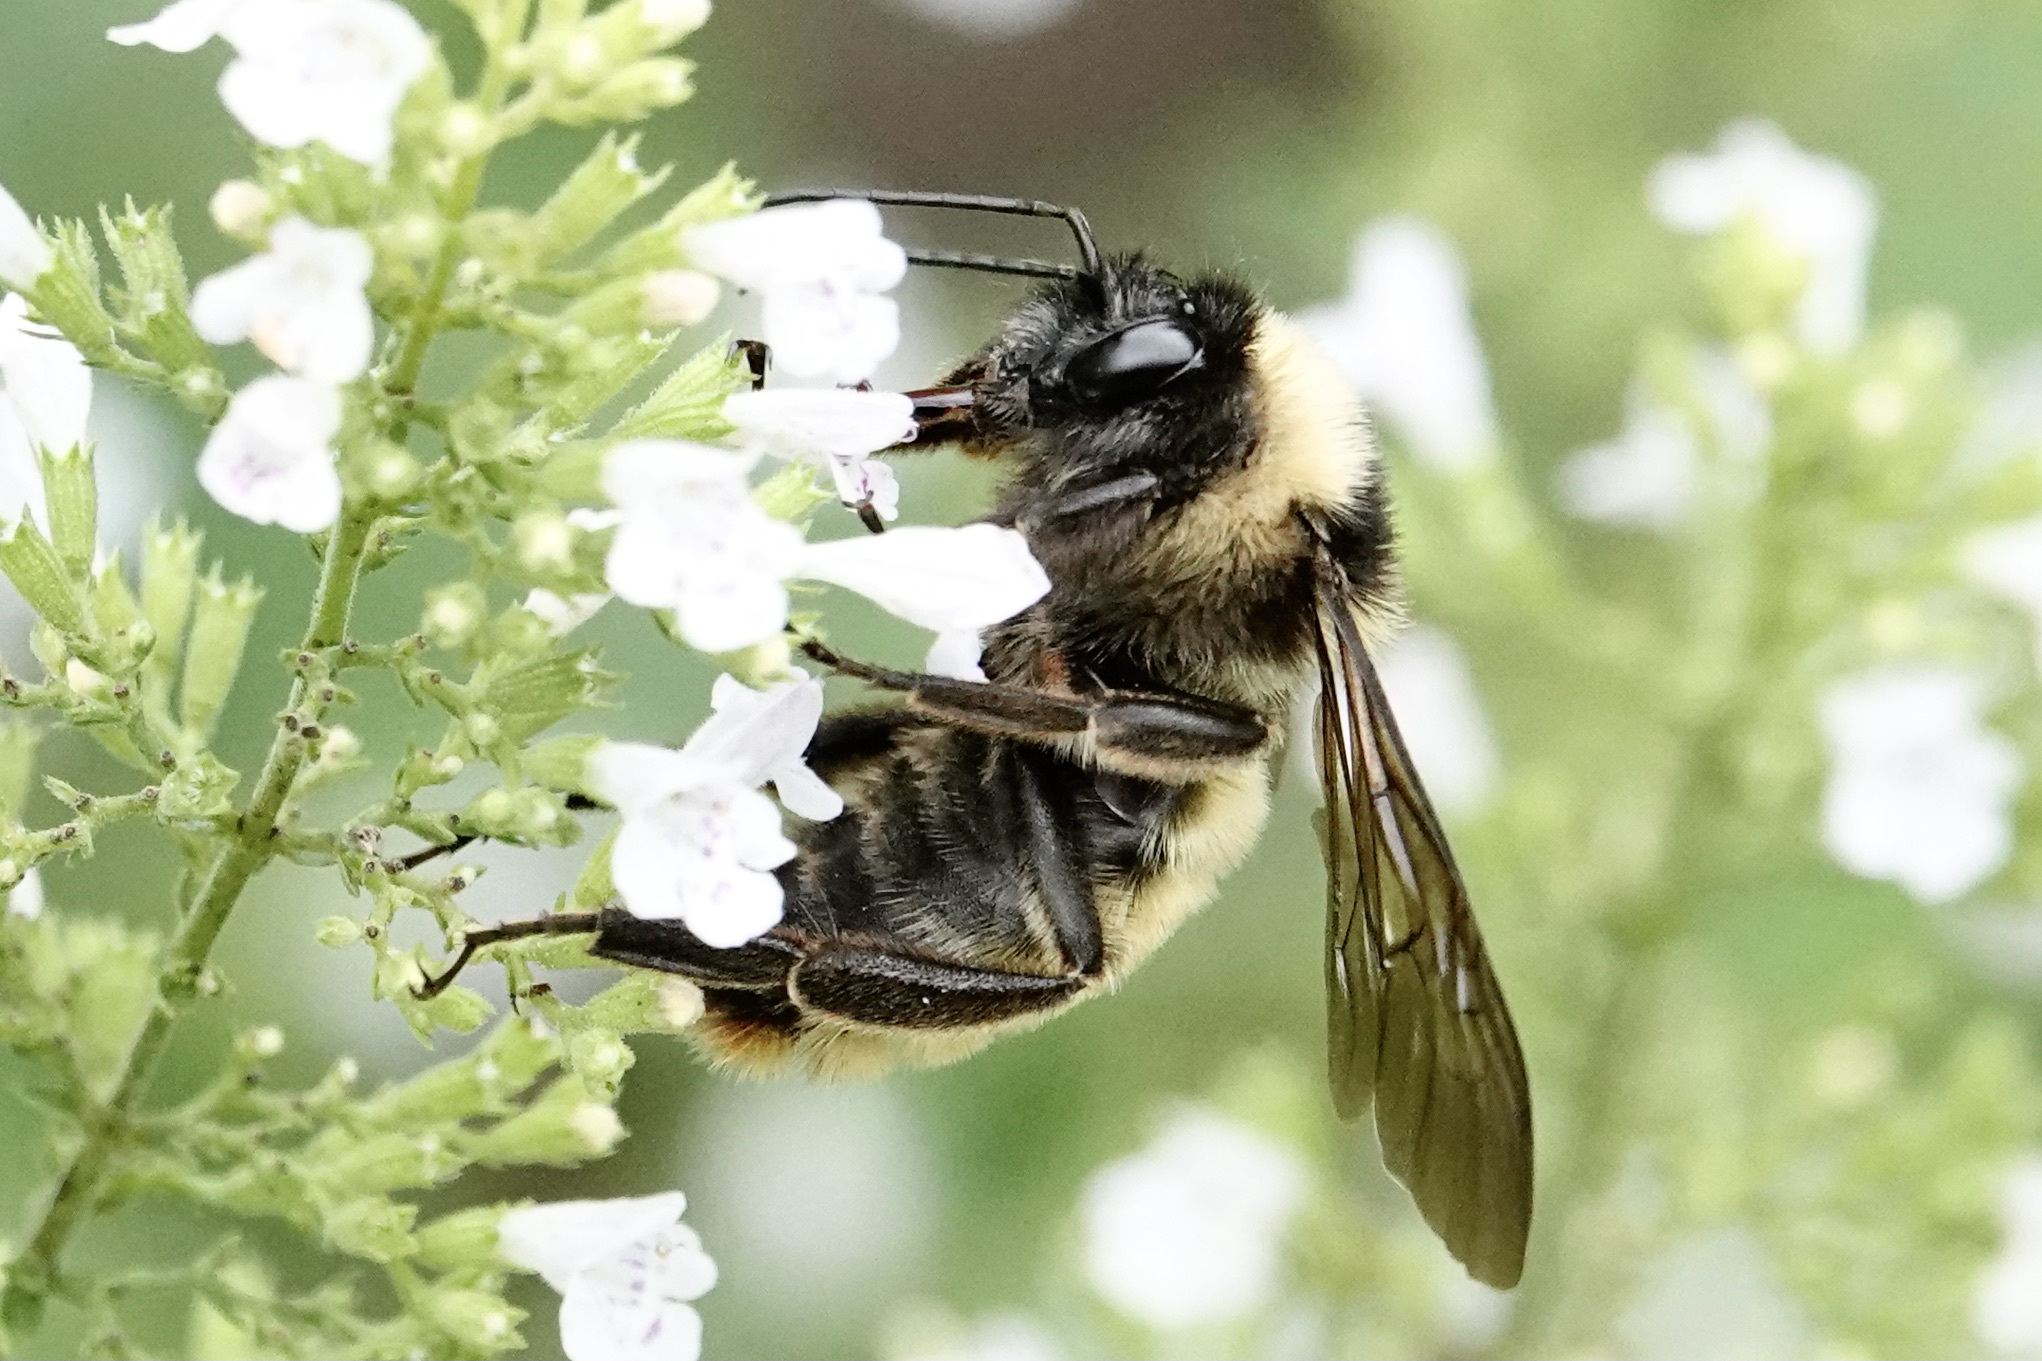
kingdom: Animalia
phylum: Arthropoda
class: Insecta
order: Hymenoptera
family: Apidae
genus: Bombus
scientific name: Bombus pensylvanicus
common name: Bumble bee
